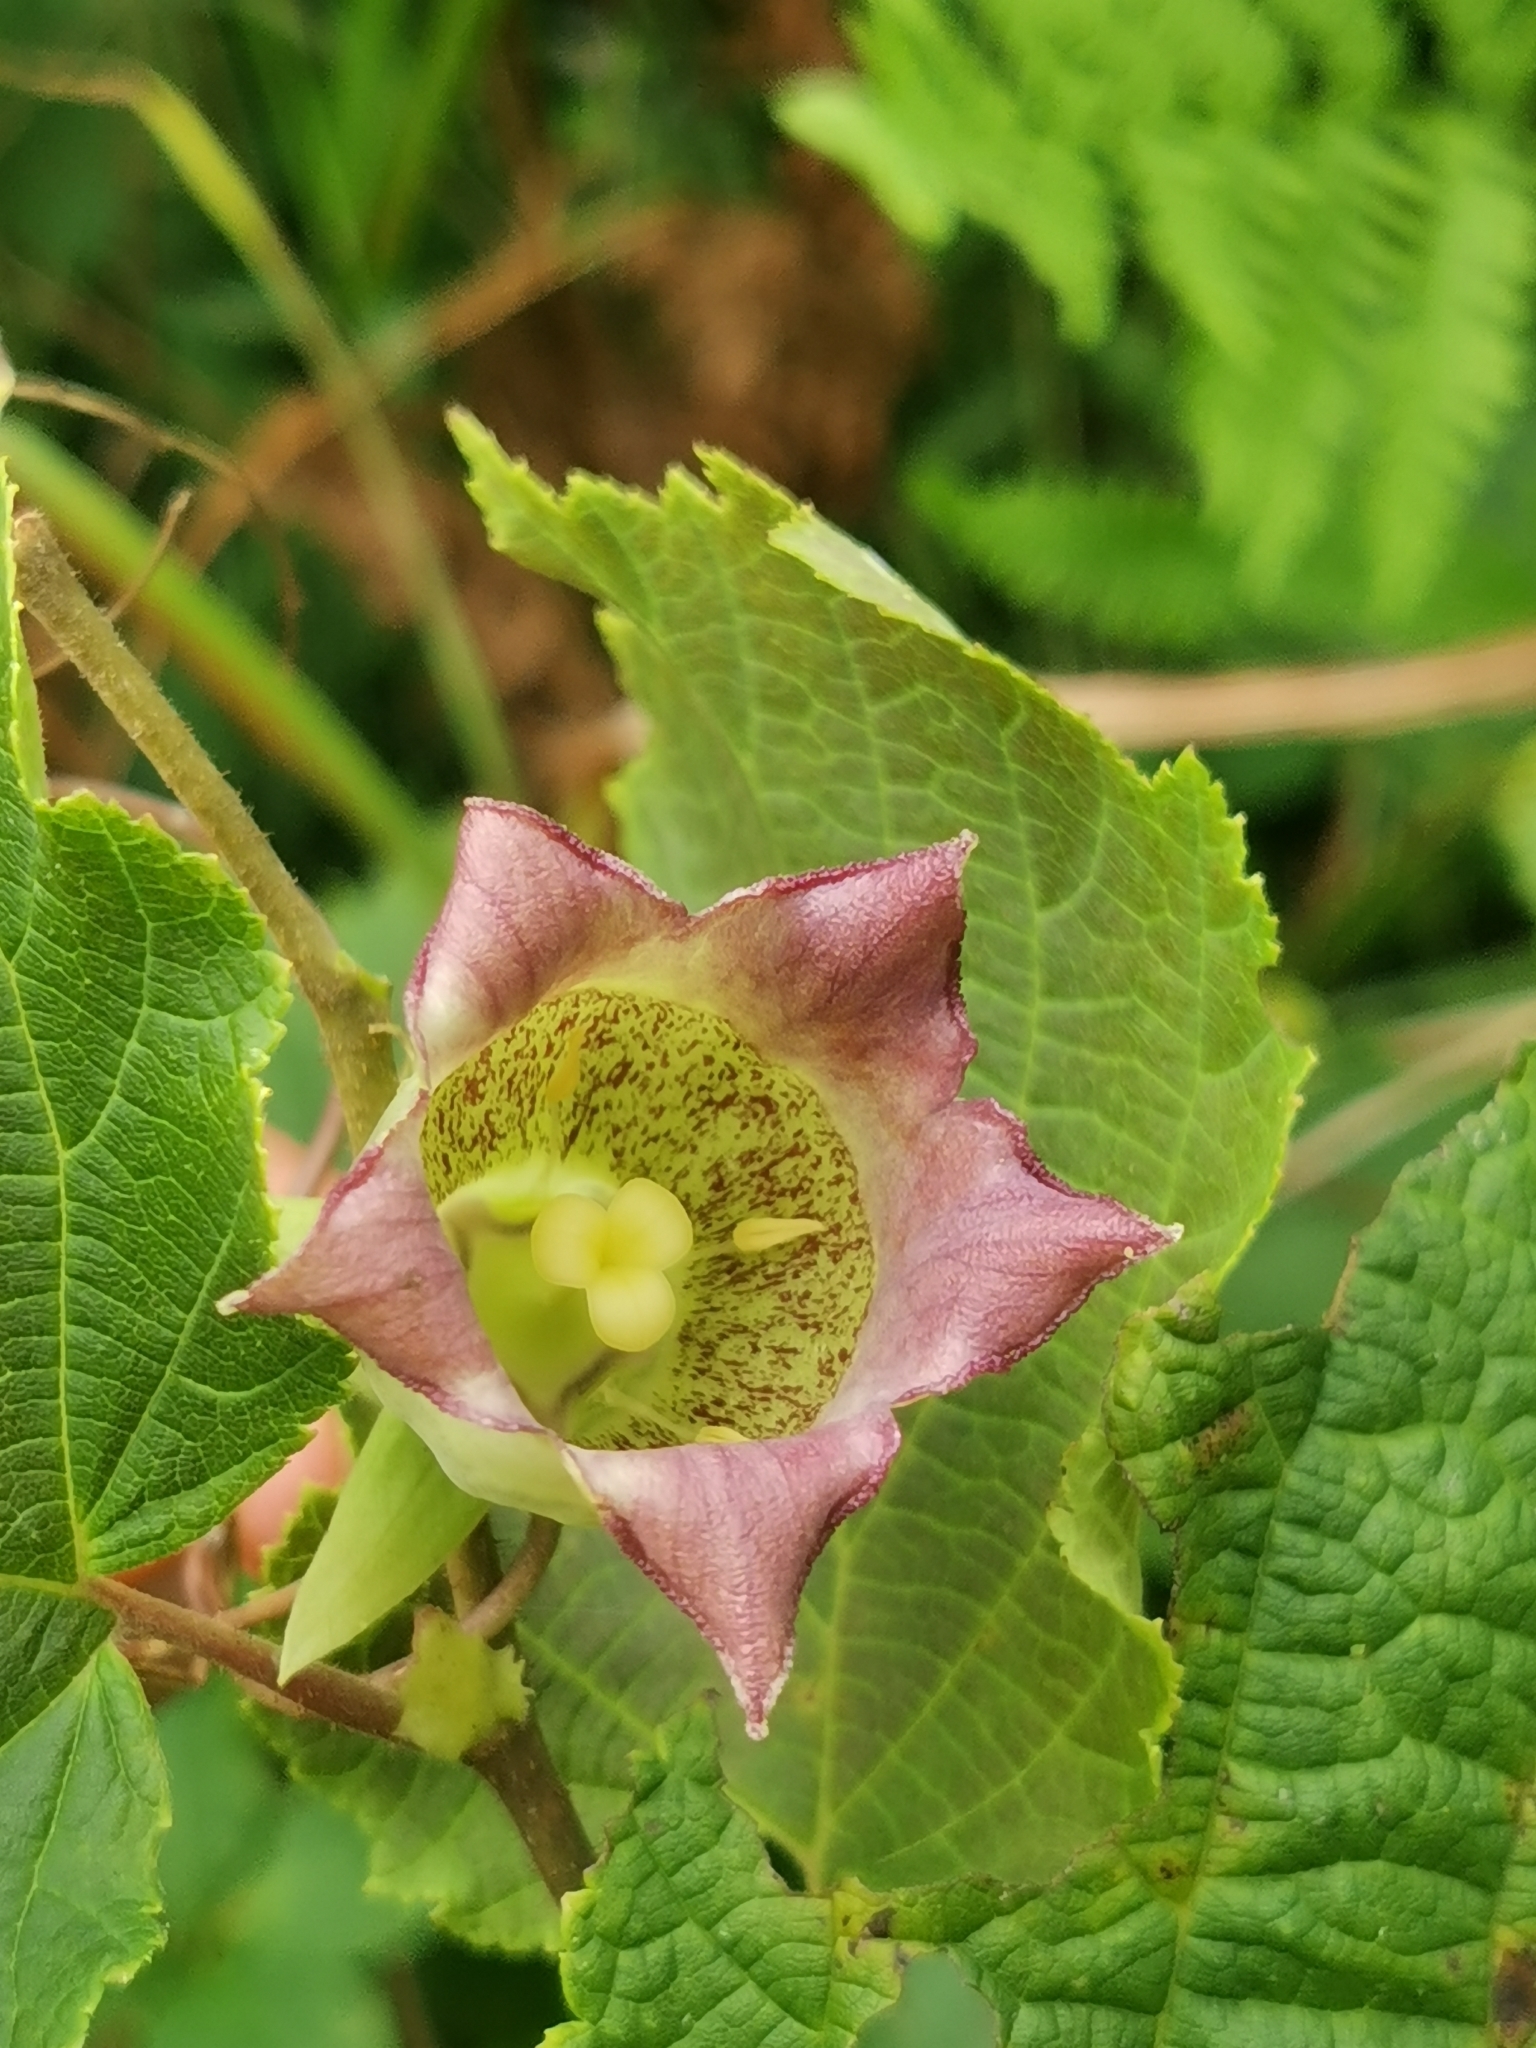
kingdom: Plantae
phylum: Tracheophyta
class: Magnoliopsida
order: Asterales
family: Campanulaceae
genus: Codonopsis
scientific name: Codonopsis lanceolata
